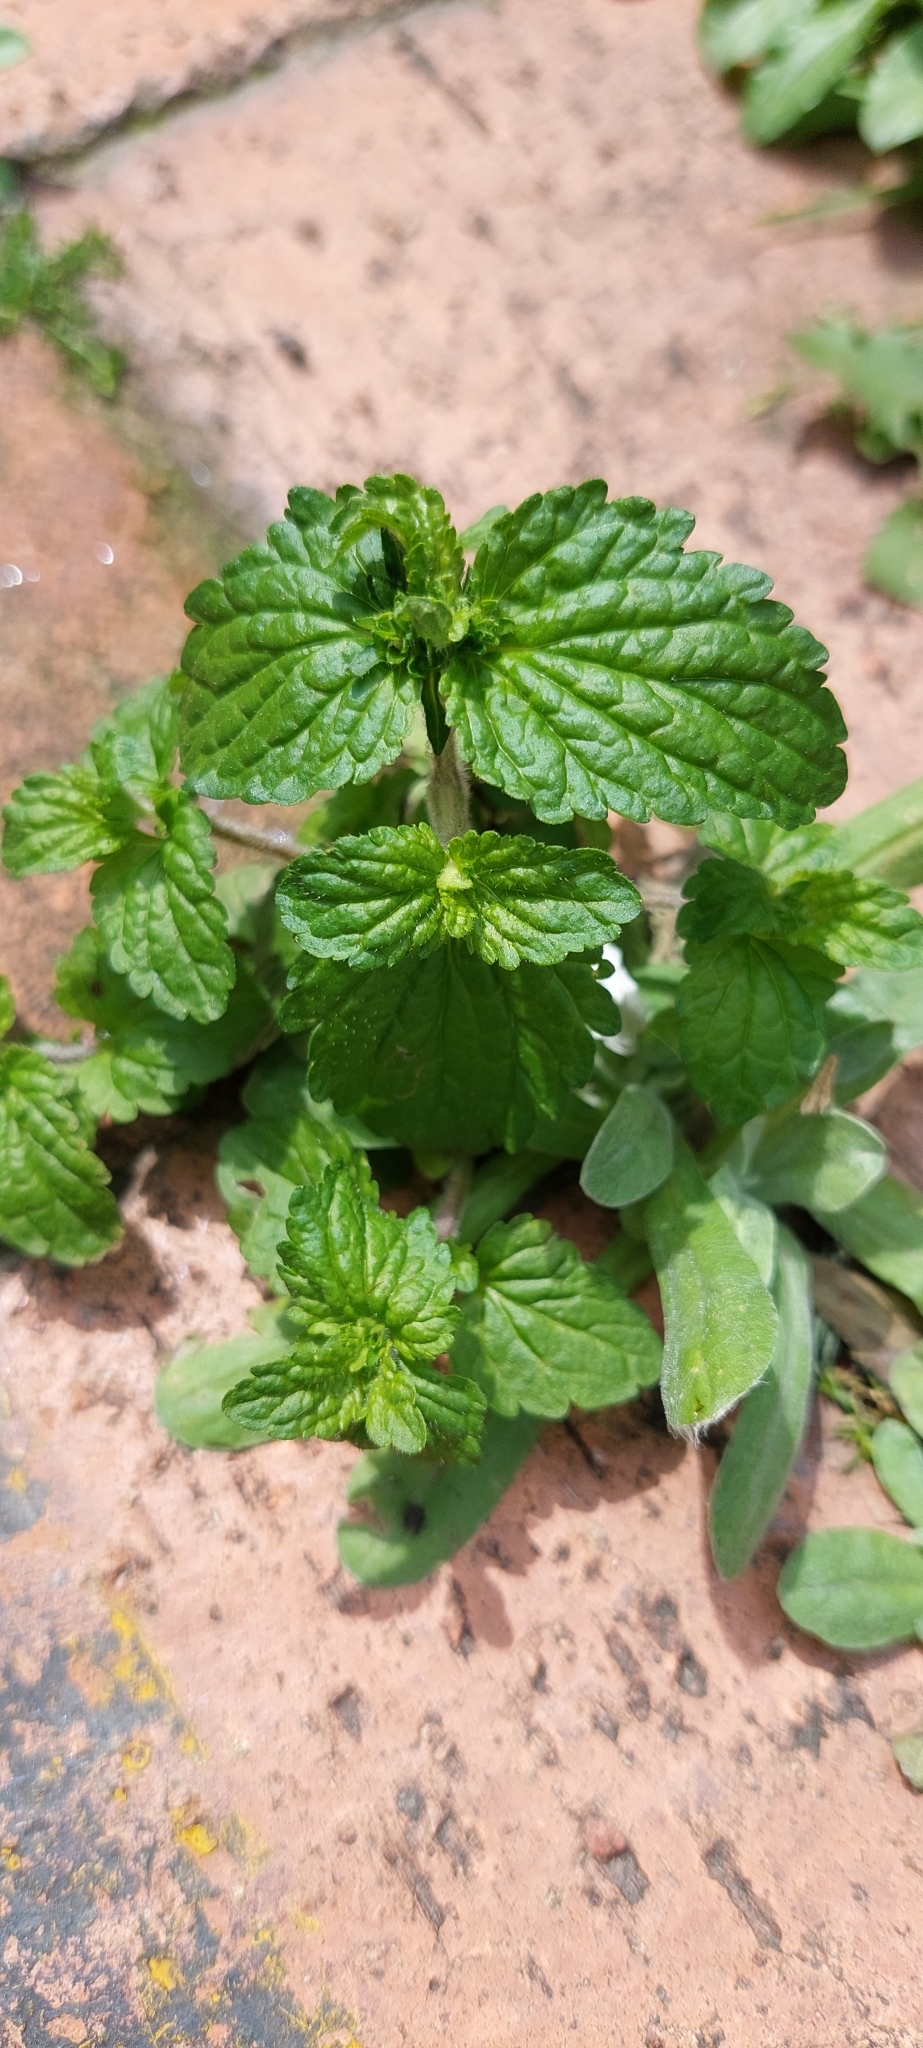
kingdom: Plantae
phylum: Tracheophyta
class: Magnoliopsida
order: Lamiales
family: Plantaginaceae
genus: Veronica
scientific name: Veronica javanica
